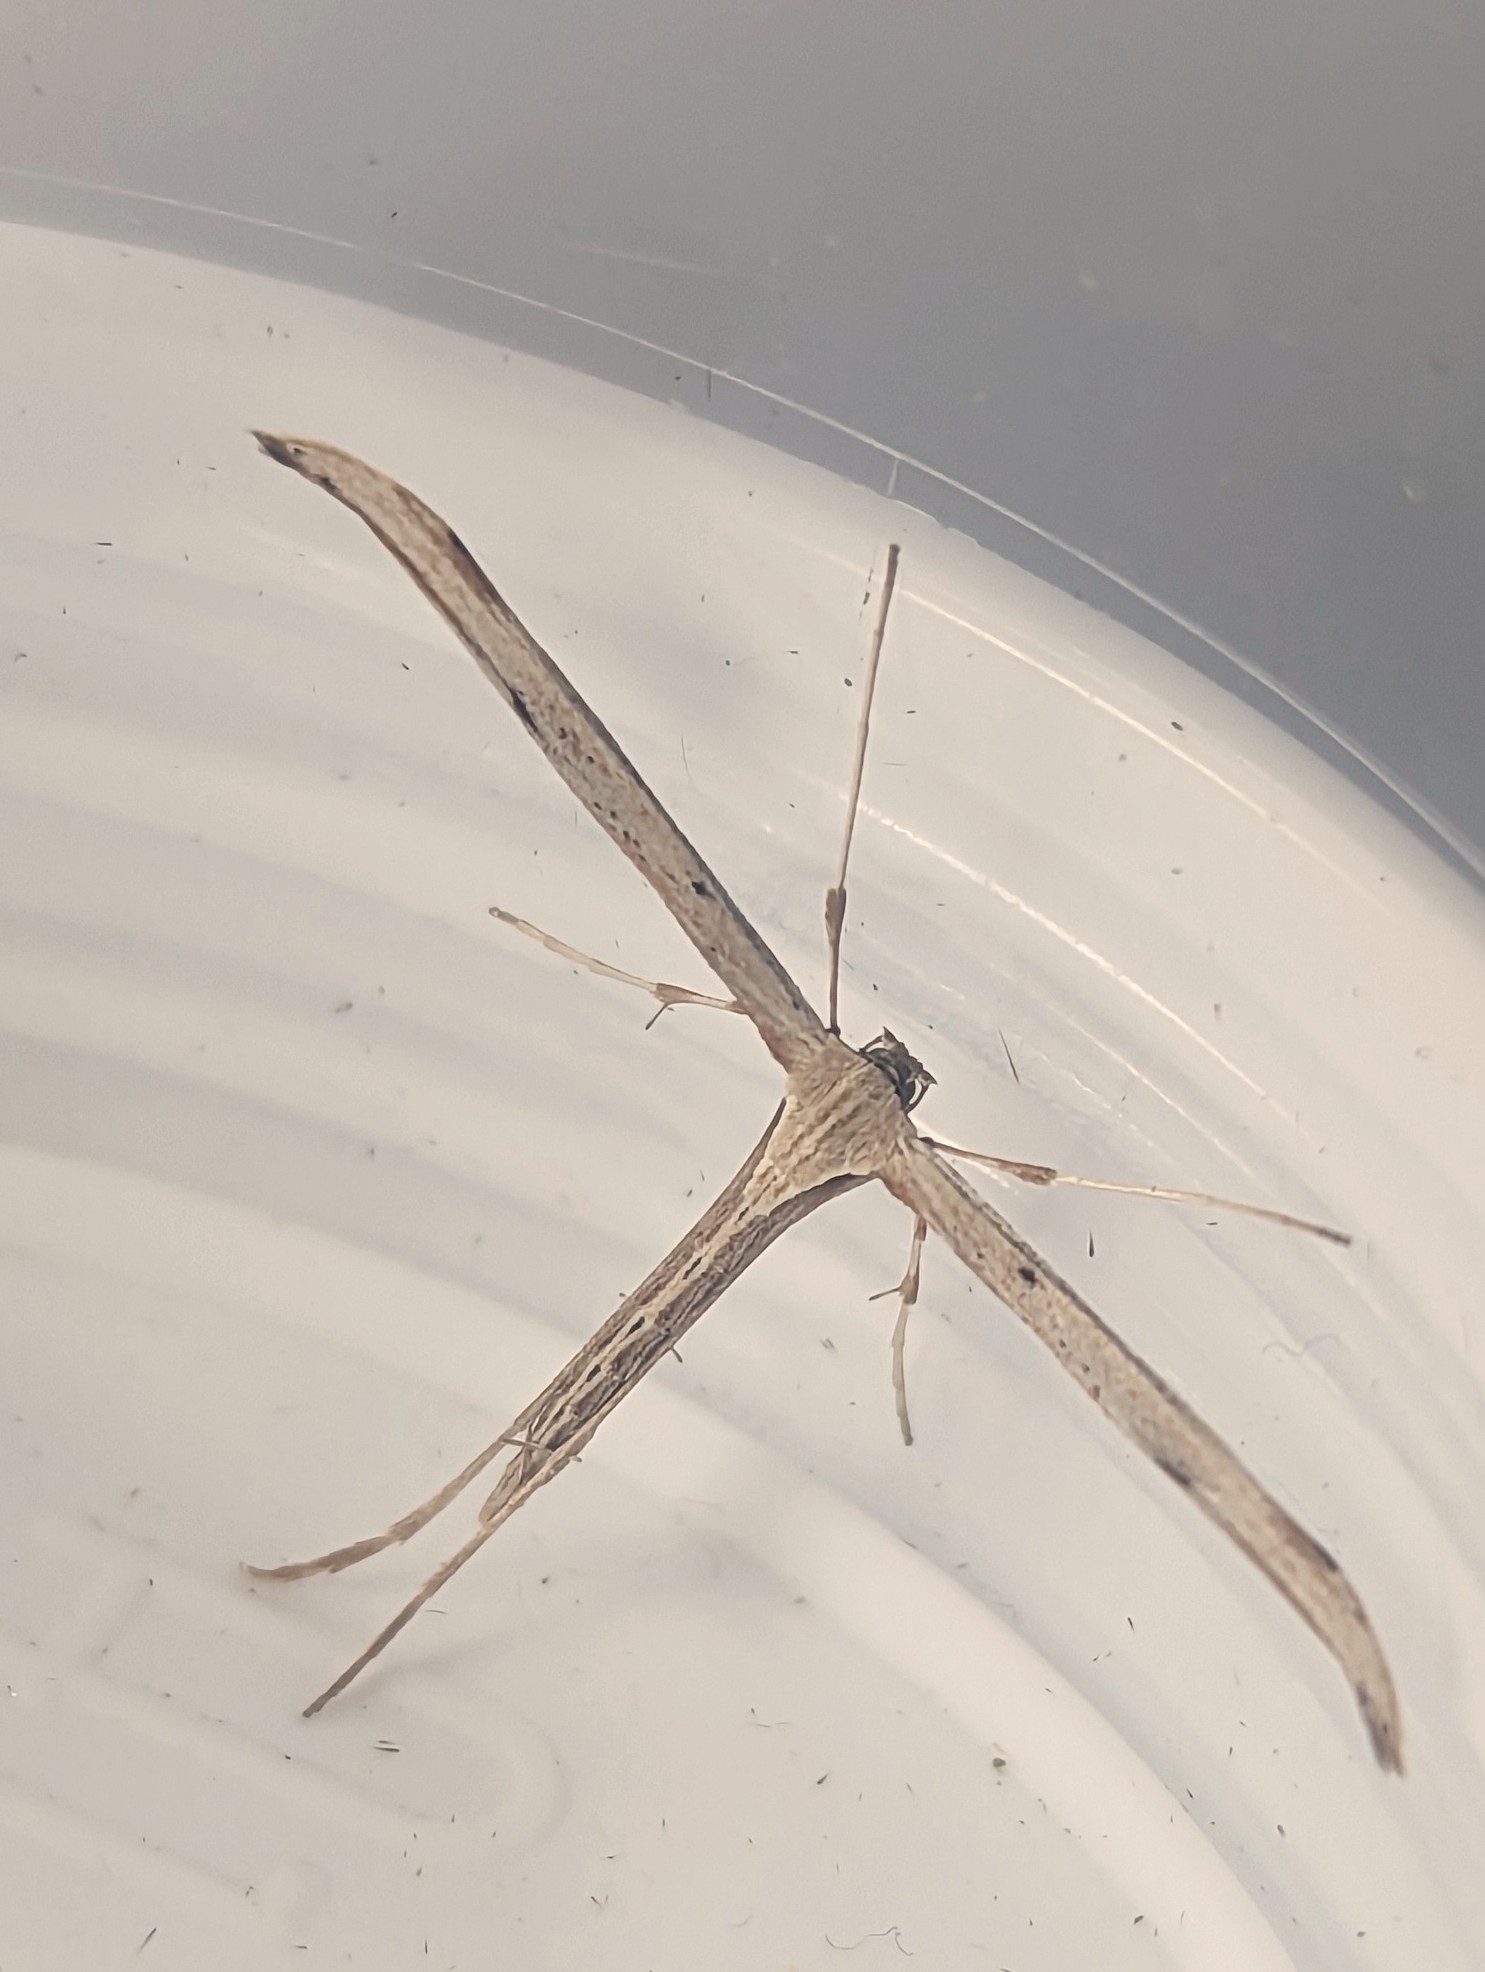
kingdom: Animalia
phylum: Arthropoda
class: Insecta
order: Lepidoptera
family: Pterophoridae
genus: Emmelina
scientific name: Emmelina monodactyla
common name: Common plume
